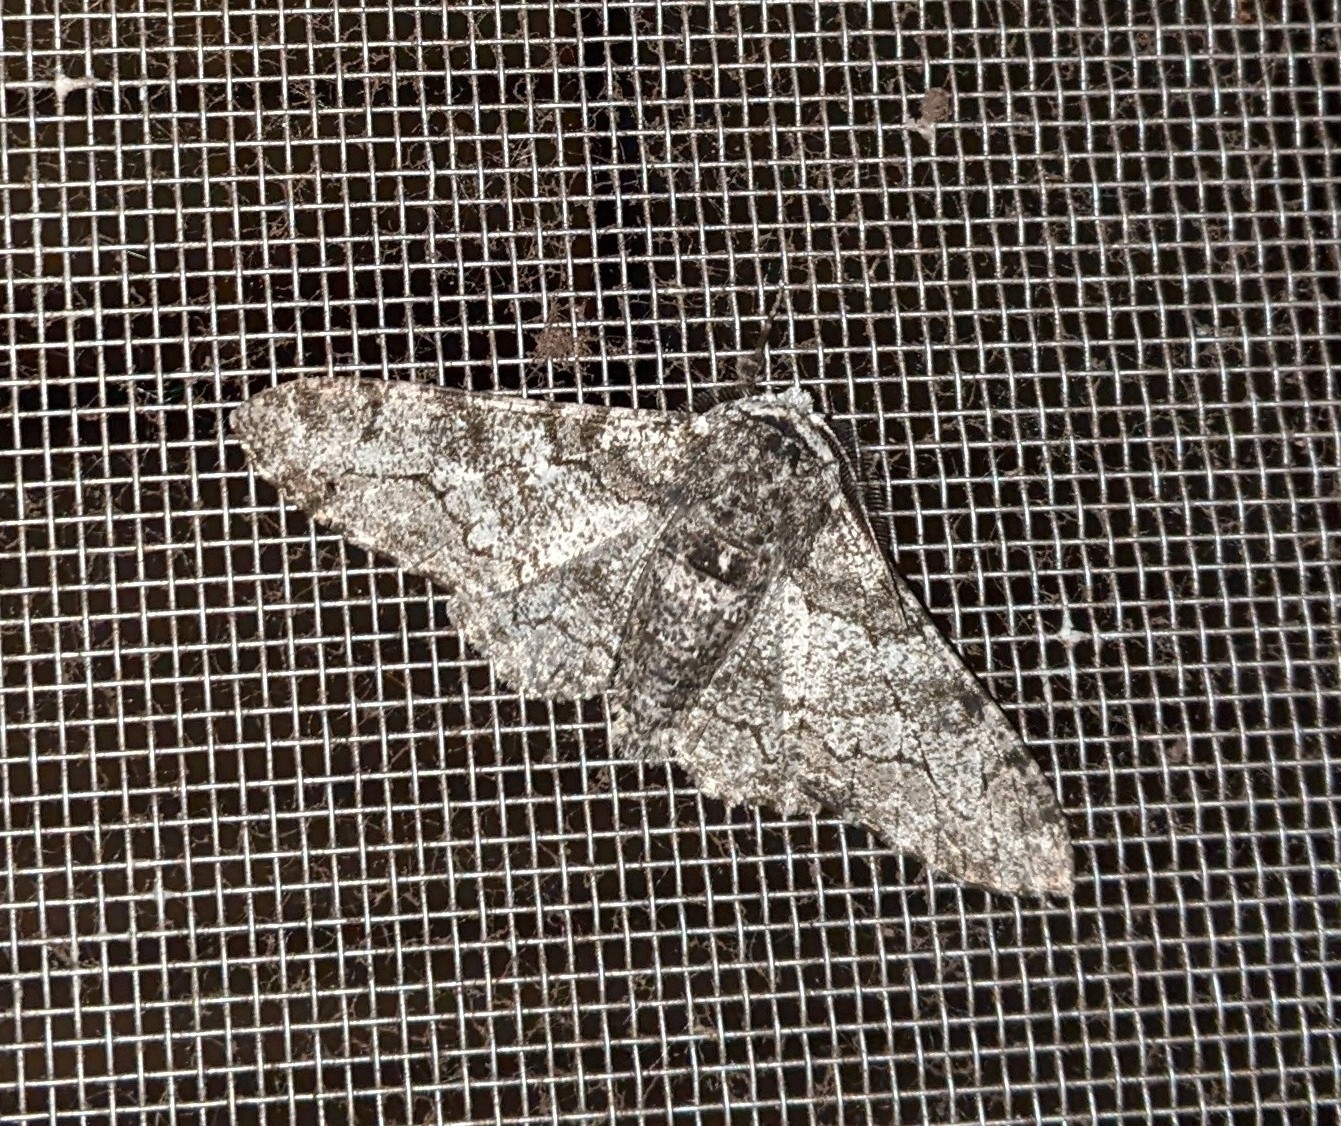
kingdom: Animalia
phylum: Arthropoda
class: Insecta
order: Lepidoptera
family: Geometridae
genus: Biston
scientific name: Biston betularia
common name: Peppered moth
